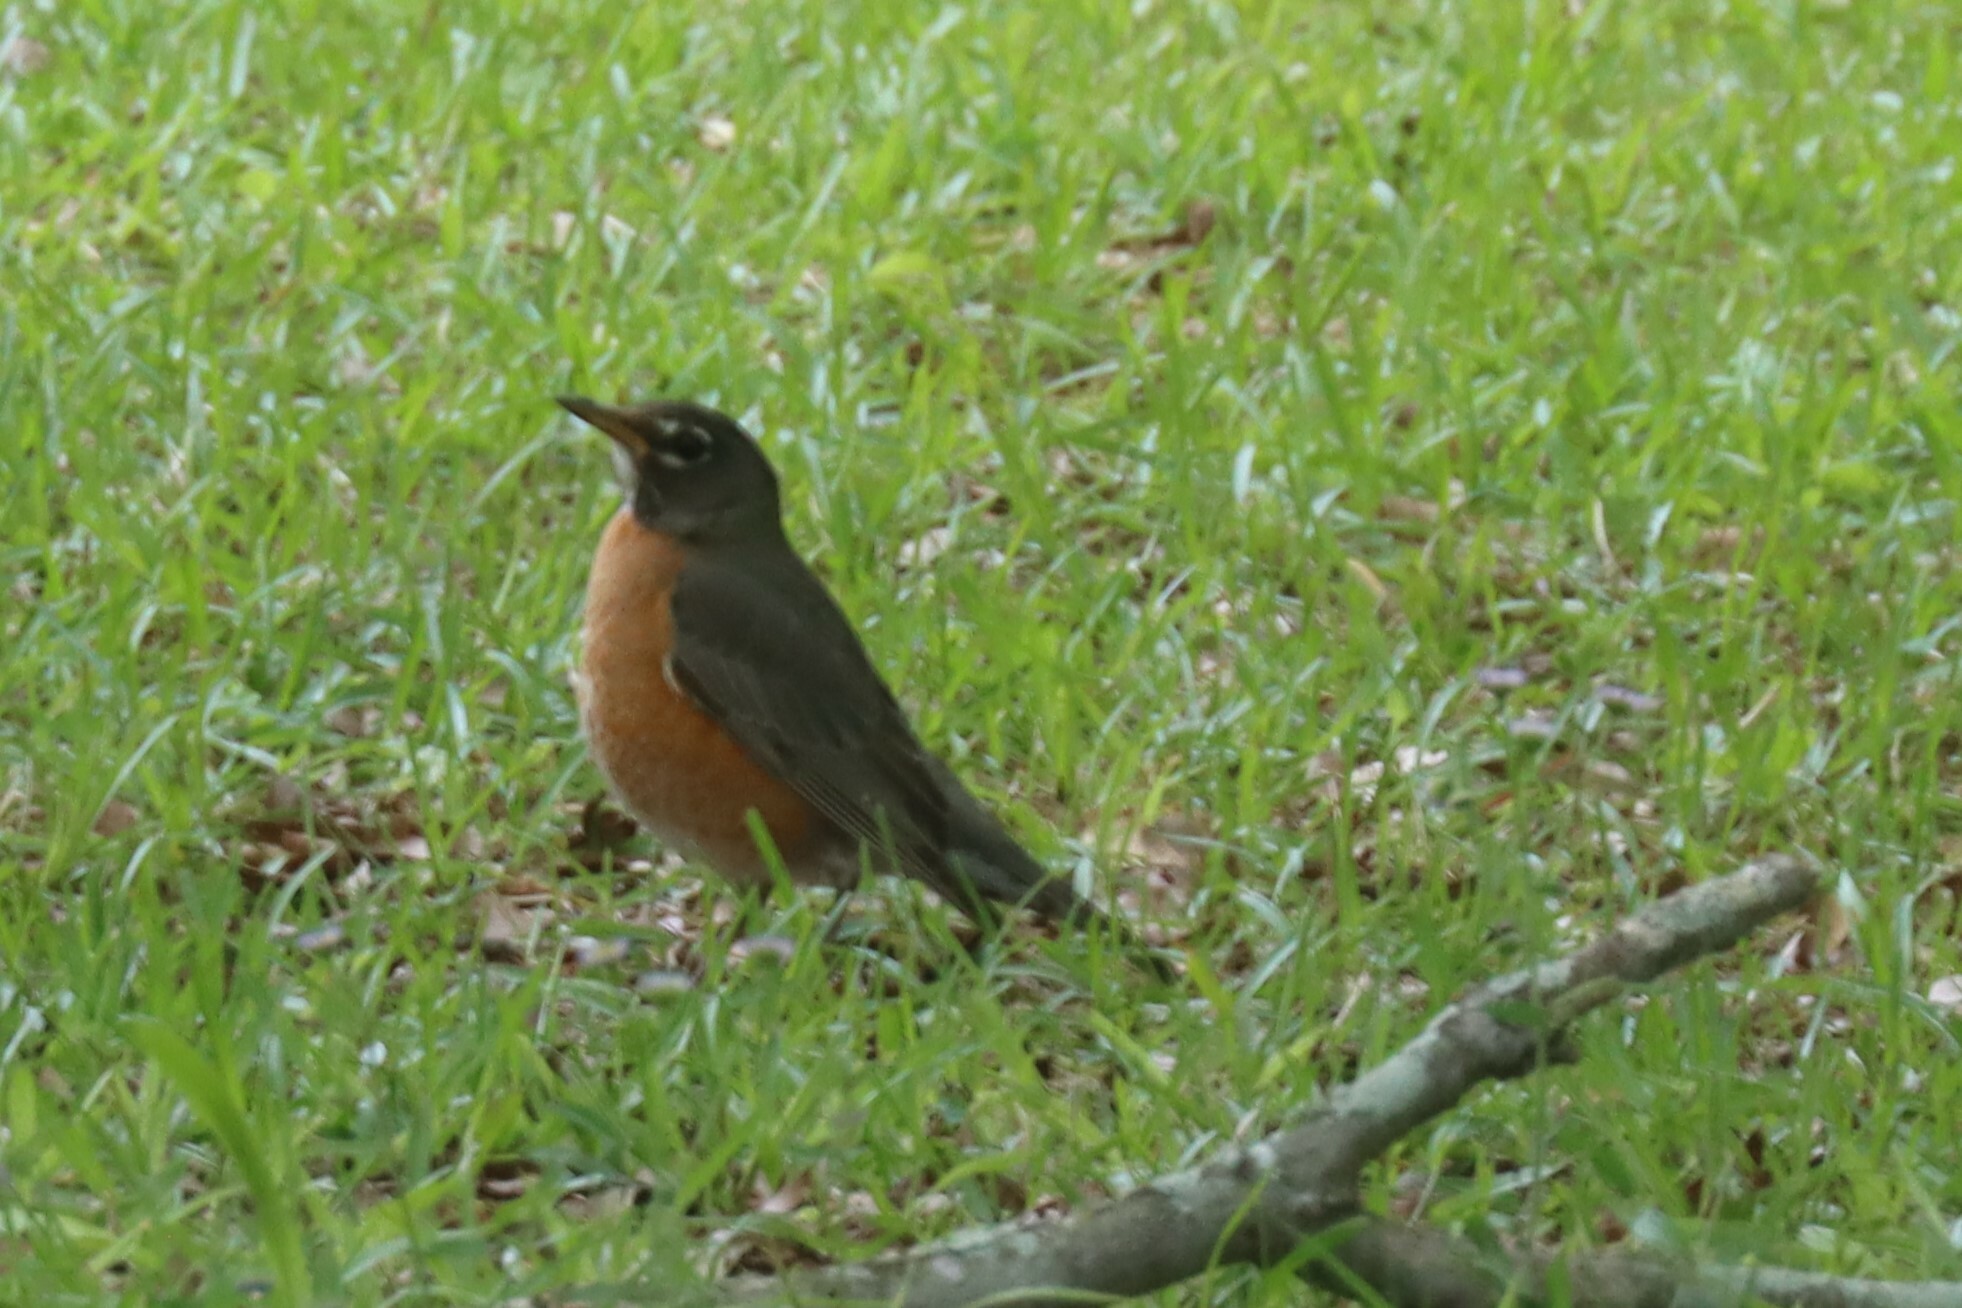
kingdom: Animalia
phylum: Chordata
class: Aves
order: Passeriformes
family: Turdidae
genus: Turdus
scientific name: Turdus migratorius
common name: American robin
